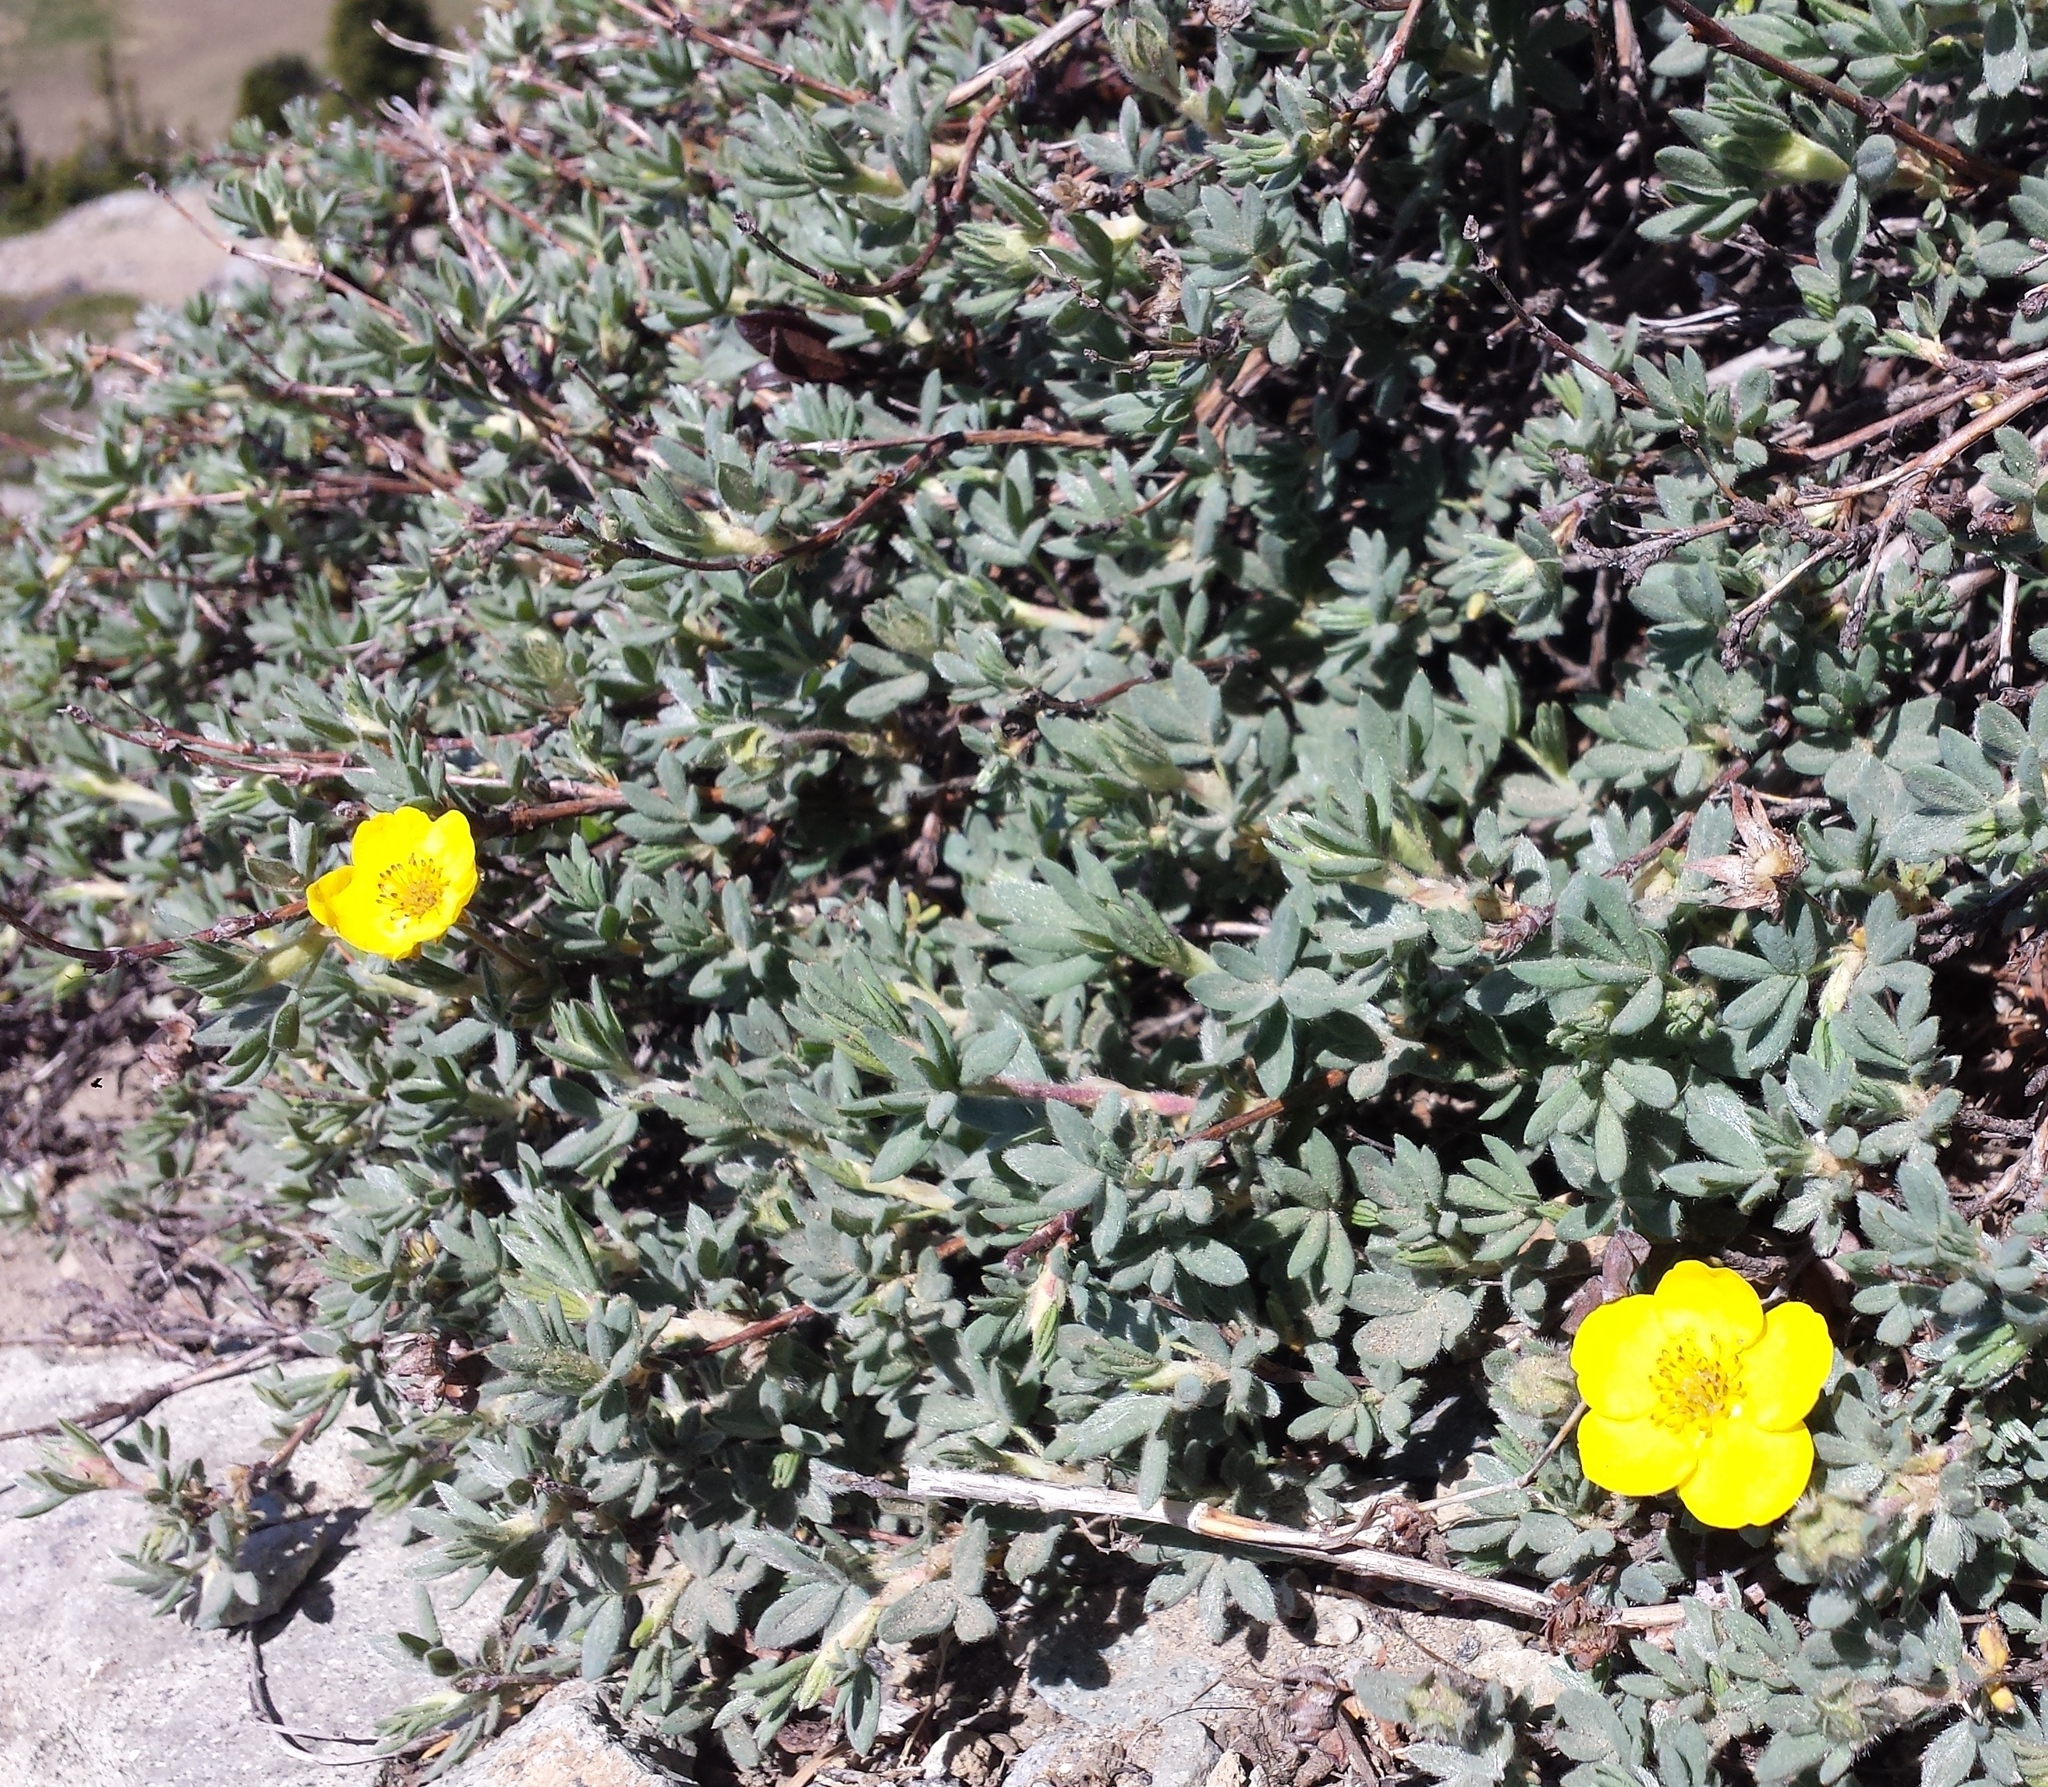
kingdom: Plantae
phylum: Tracheophyta
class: Magnoliopsida
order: Rosales
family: Rosaceae
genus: Dasiphora
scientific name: Dasiphora fruticosa
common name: Shrubby cinquefoil
